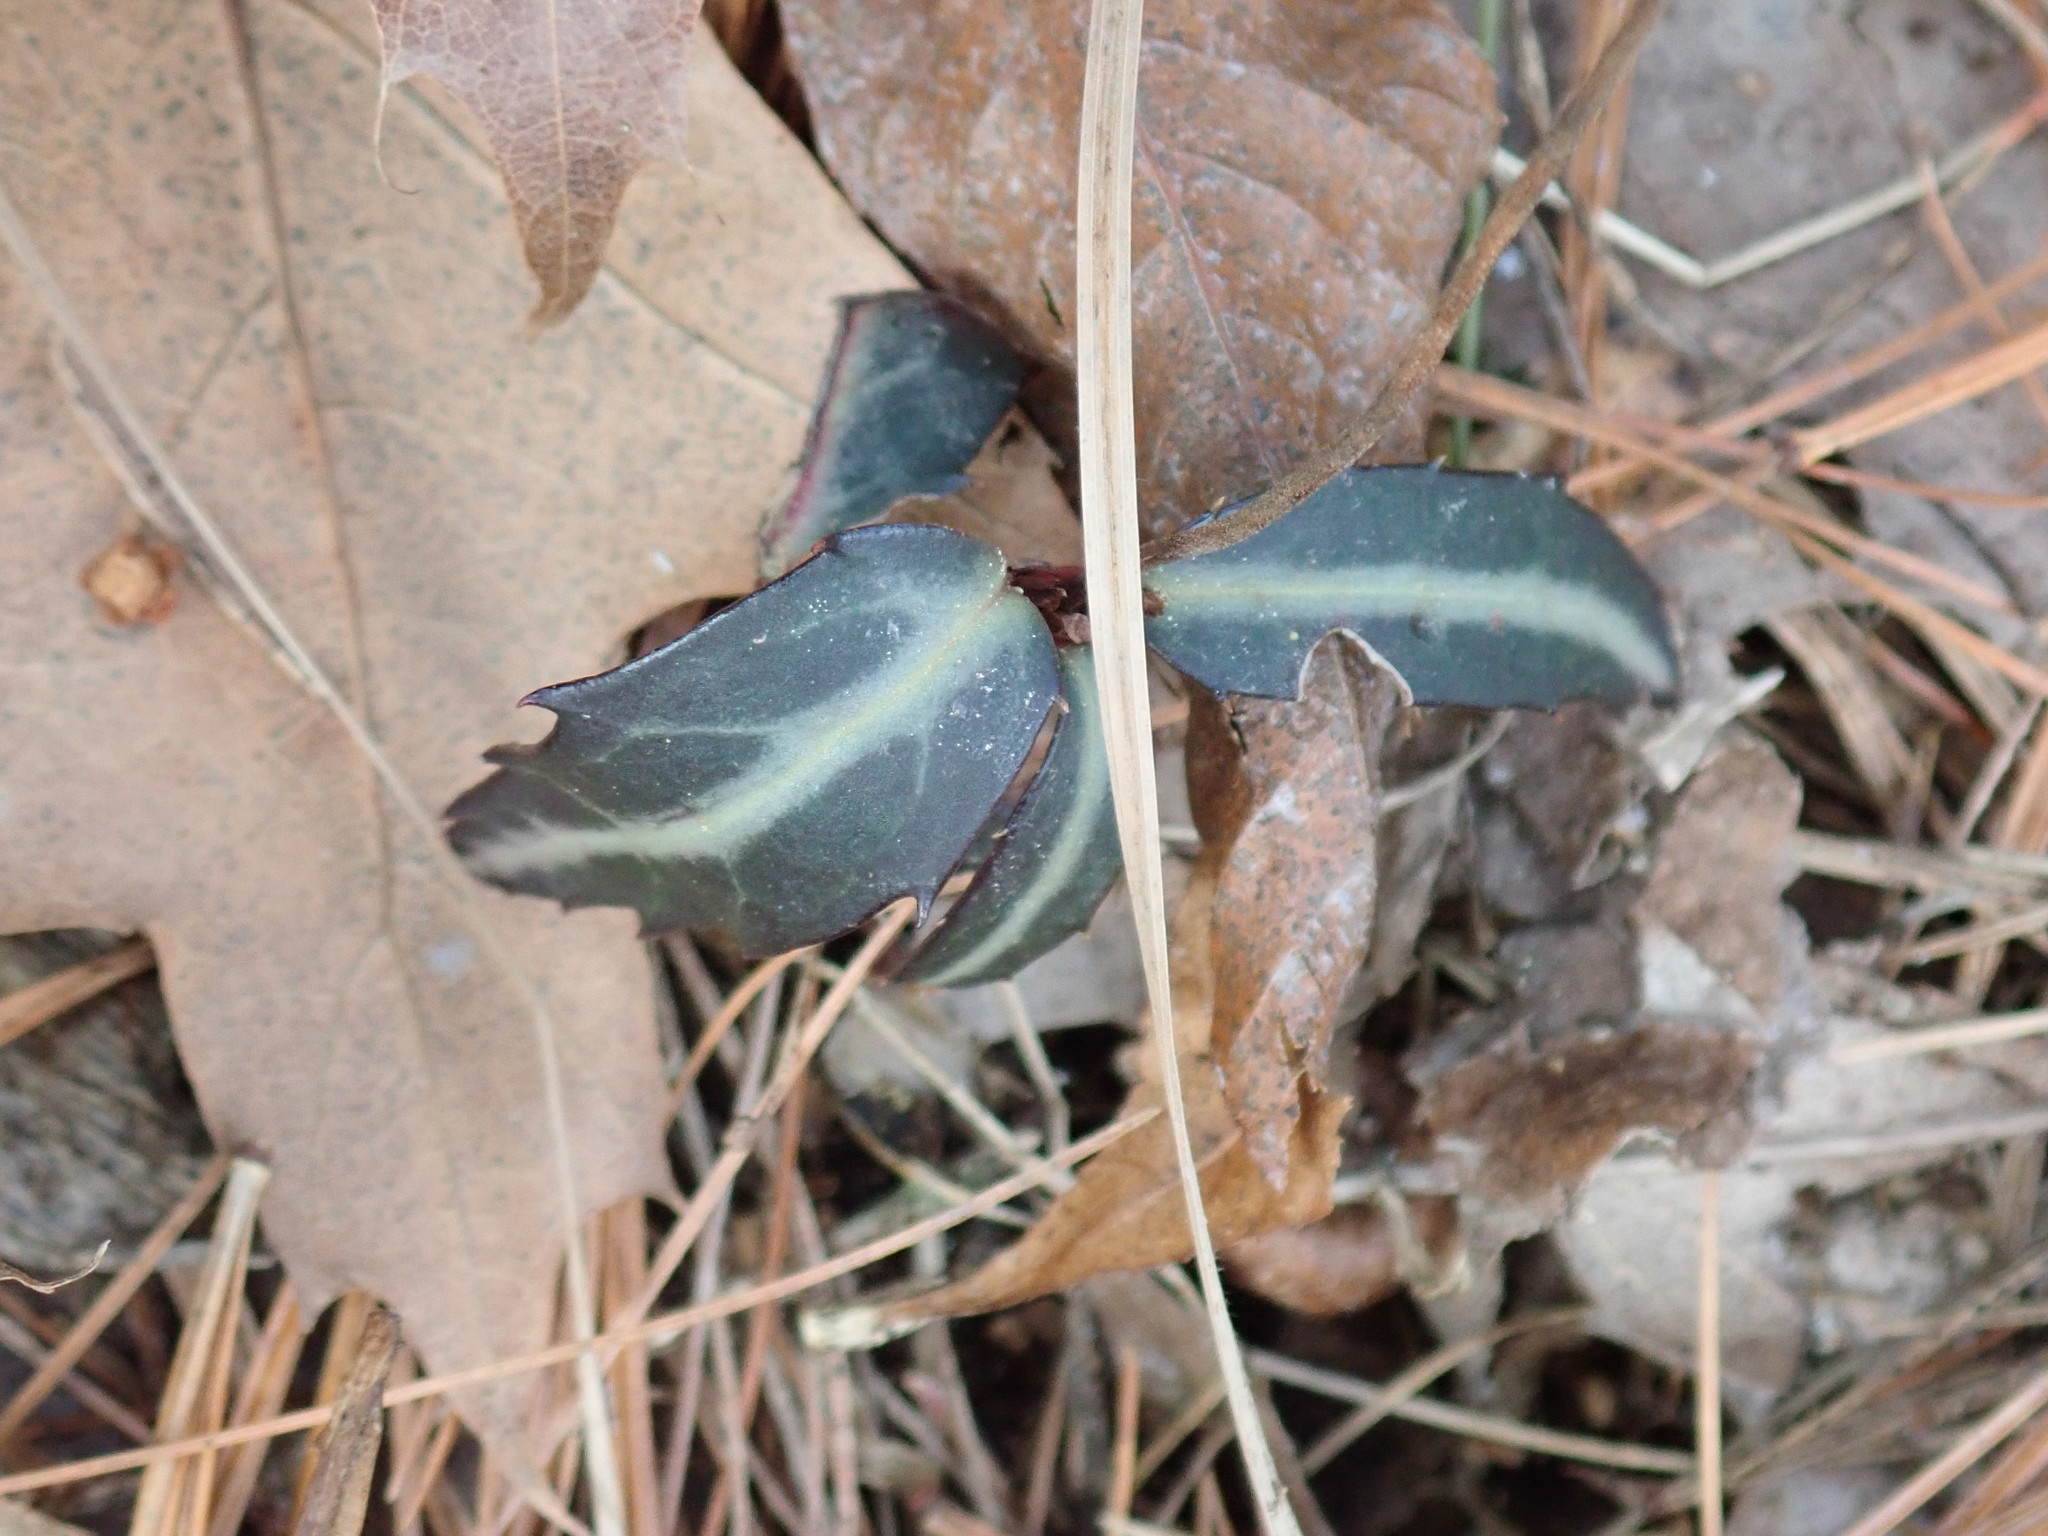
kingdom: Plantae
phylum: Tracheophyta
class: Magnoliopsida
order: Ericales
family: Ericaceae
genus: Chimaphila
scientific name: Chimaphila maculata
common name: Spotted pipsissewa
